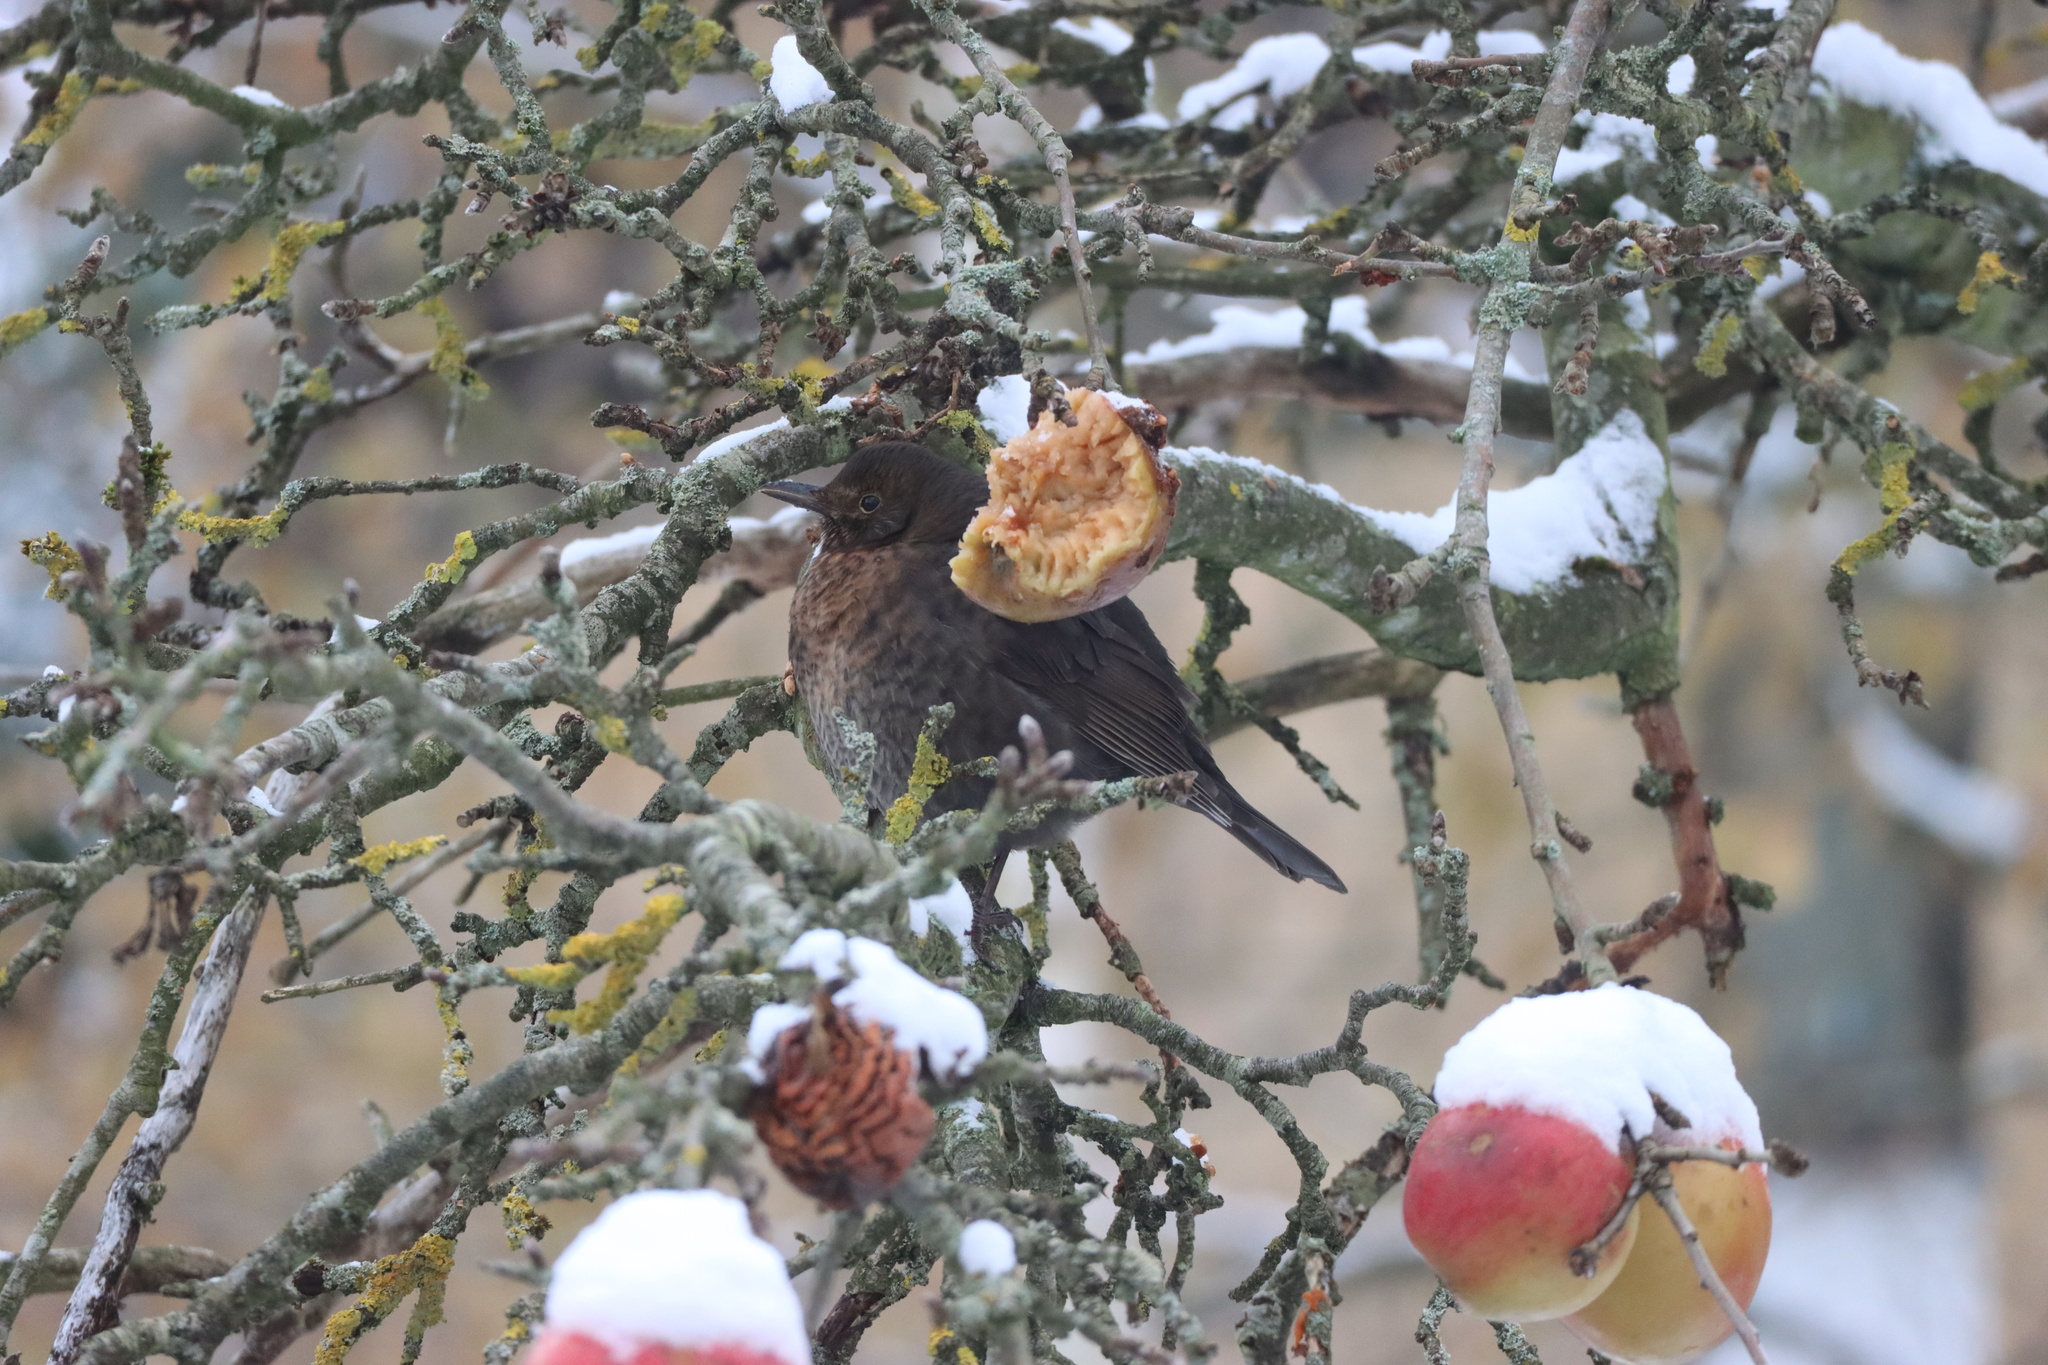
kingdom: Animalia
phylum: Chordata
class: Aves
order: Passeriformes
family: Turdidae
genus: Turdus
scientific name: Turdus merula
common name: Common blackbird
